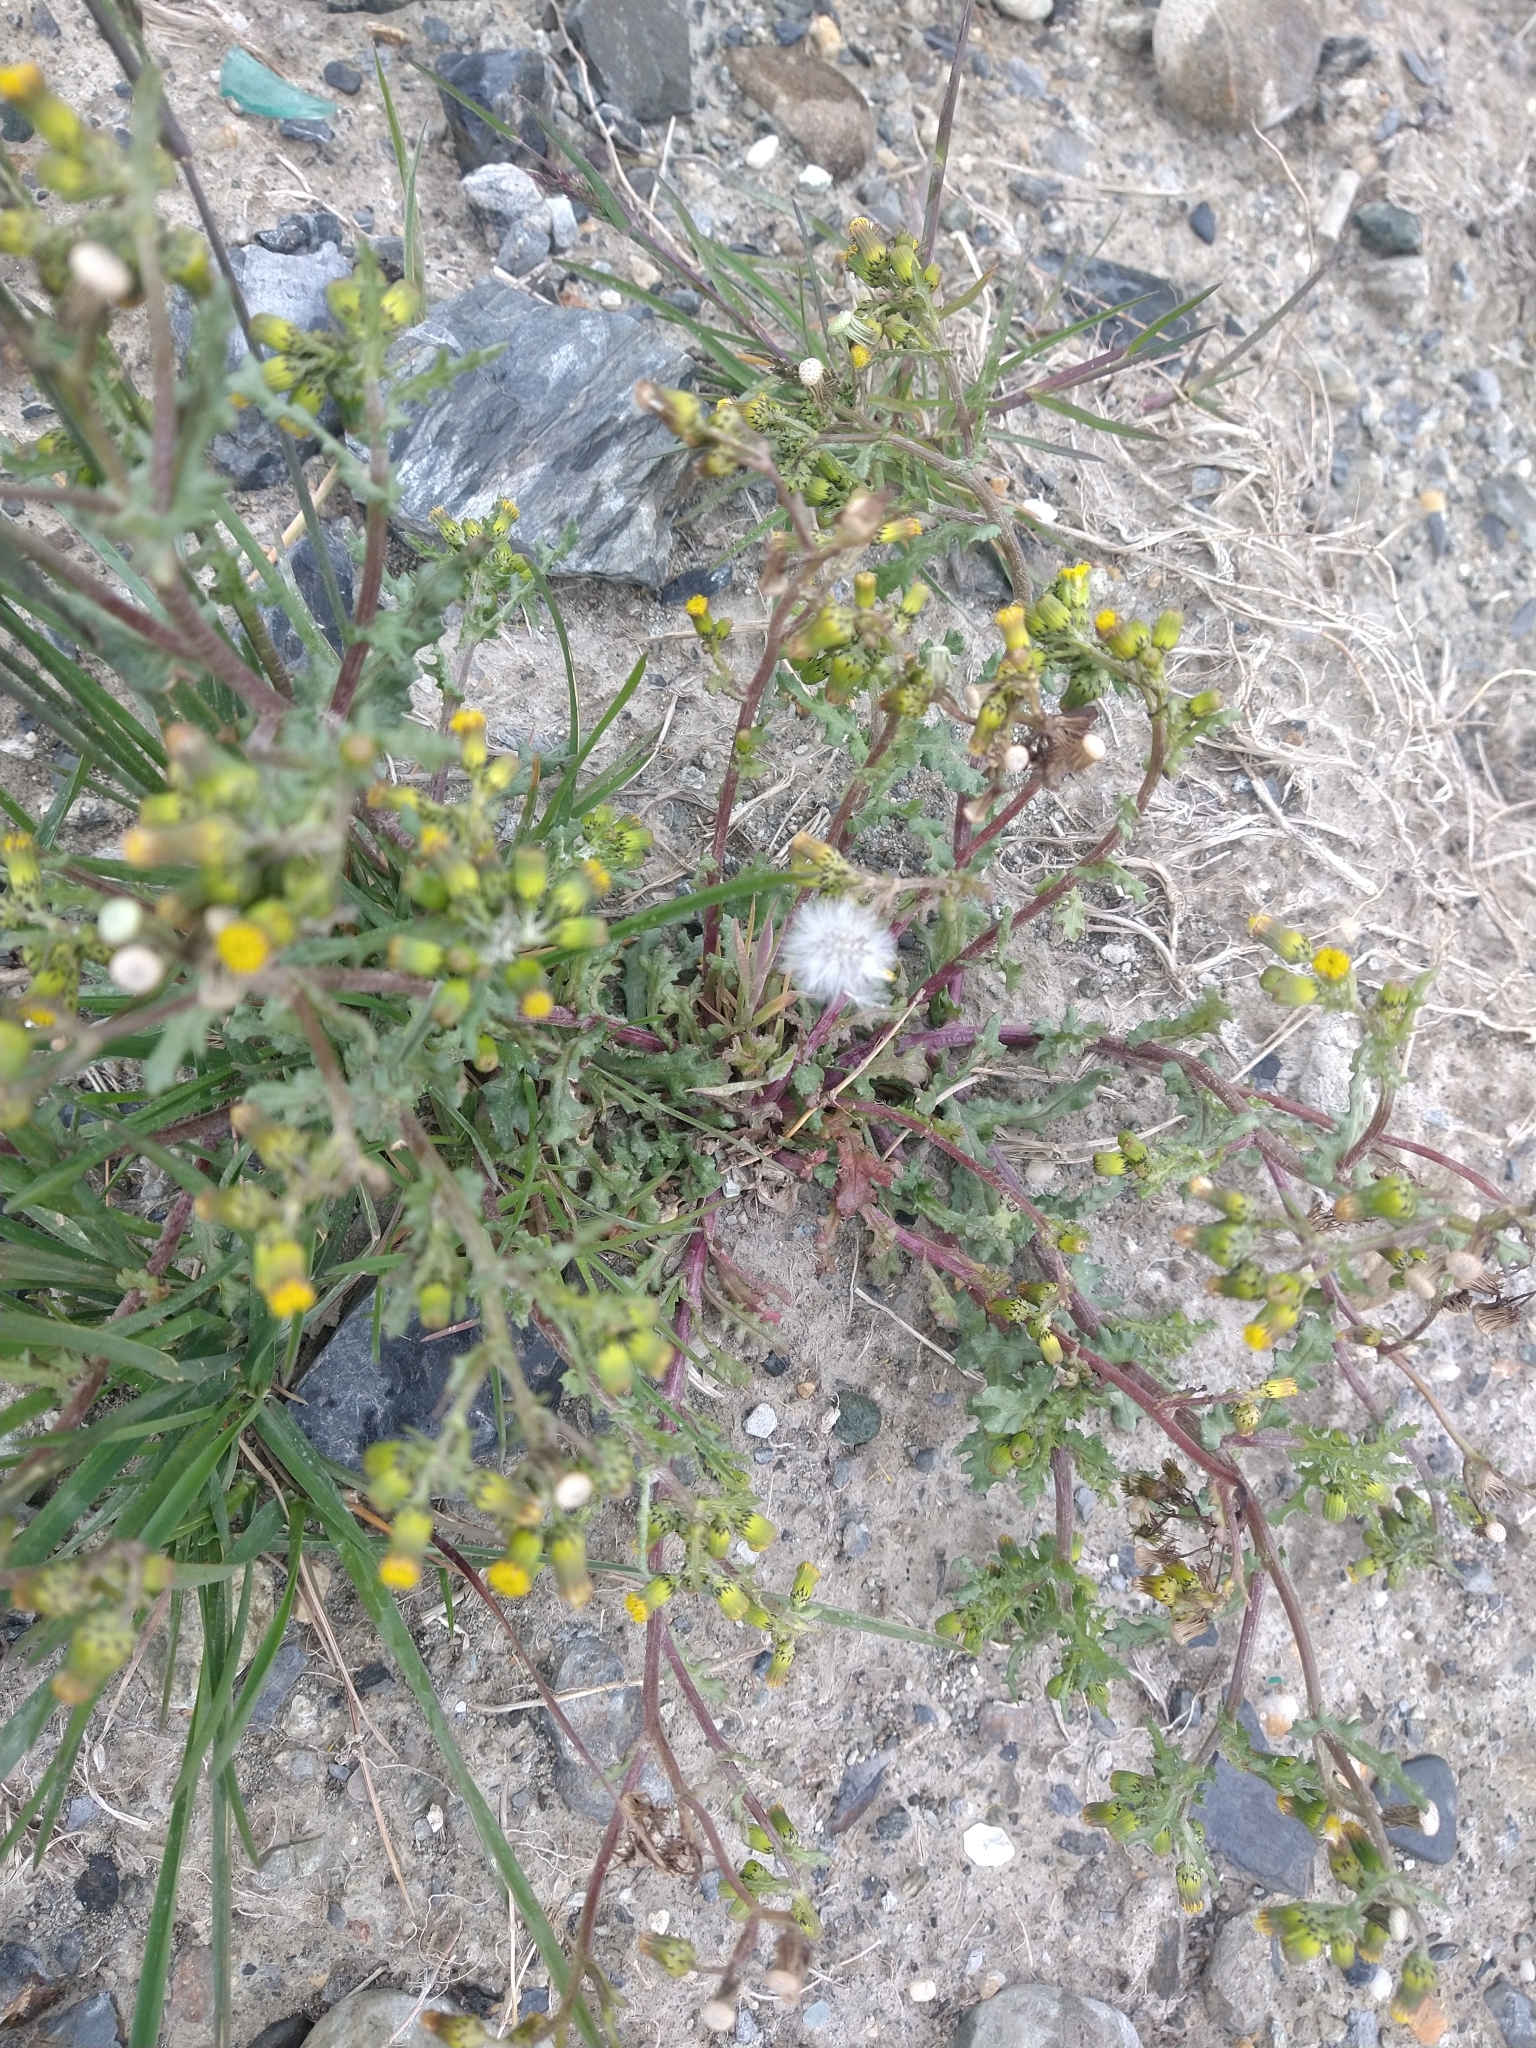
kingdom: Plantae
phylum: Tracheophyta
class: Magnoliopsida
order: Asterales
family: Asteraceae
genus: Senecio
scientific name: Senecio vulgaris
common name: Old-man-in-the-spring
